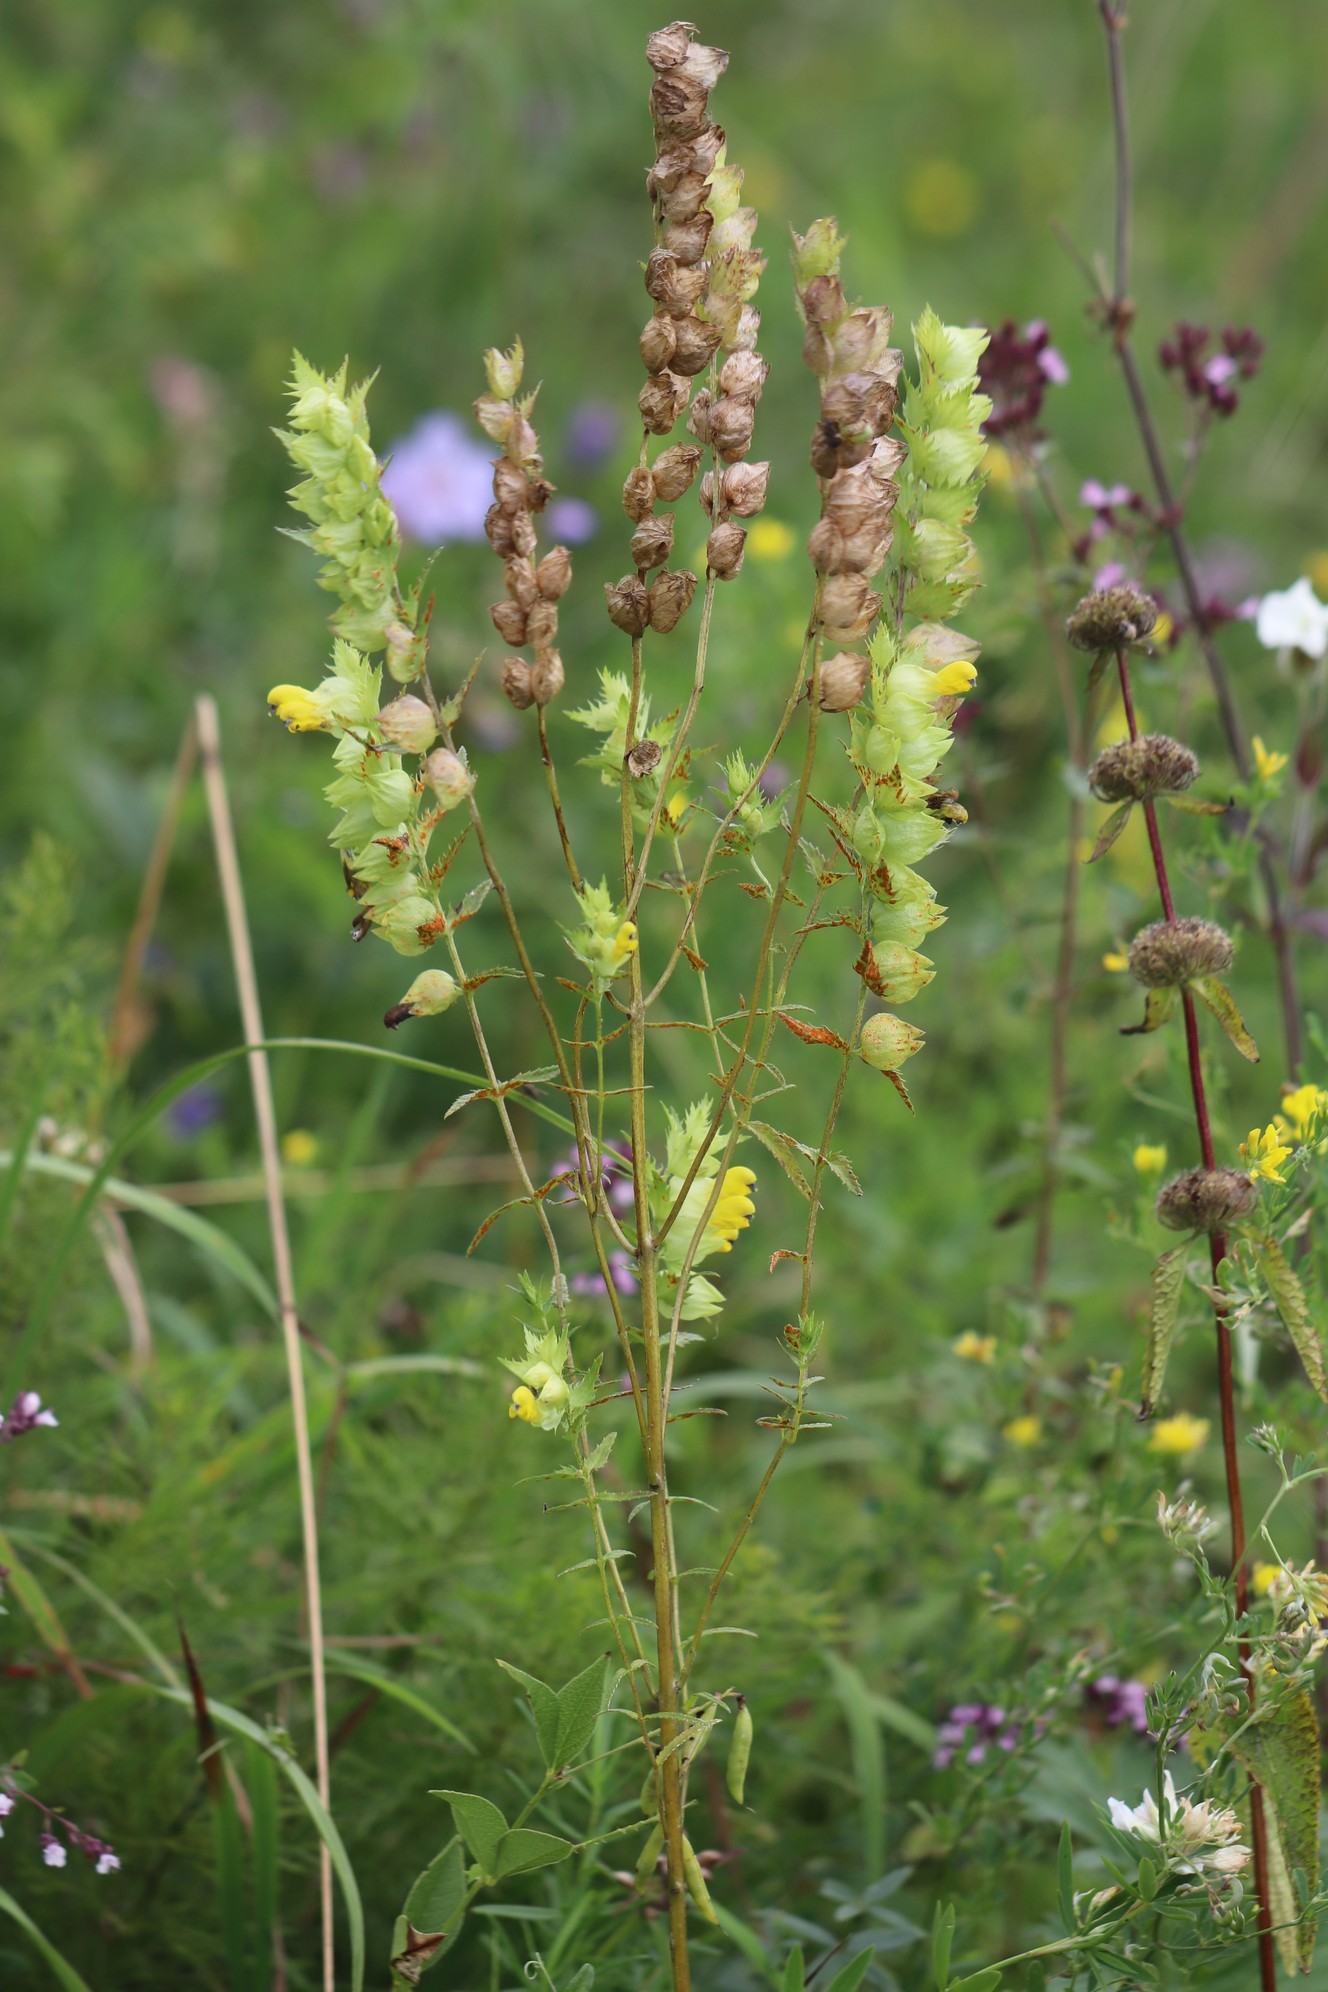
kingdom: Plantae
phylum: Tracheophyta
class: Magnoliopsida
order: Lamiales
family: Orobanchaceae
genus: Rhinanthus
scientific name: Rhinanthus serotinus
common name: Late-flowering yellow rattle
